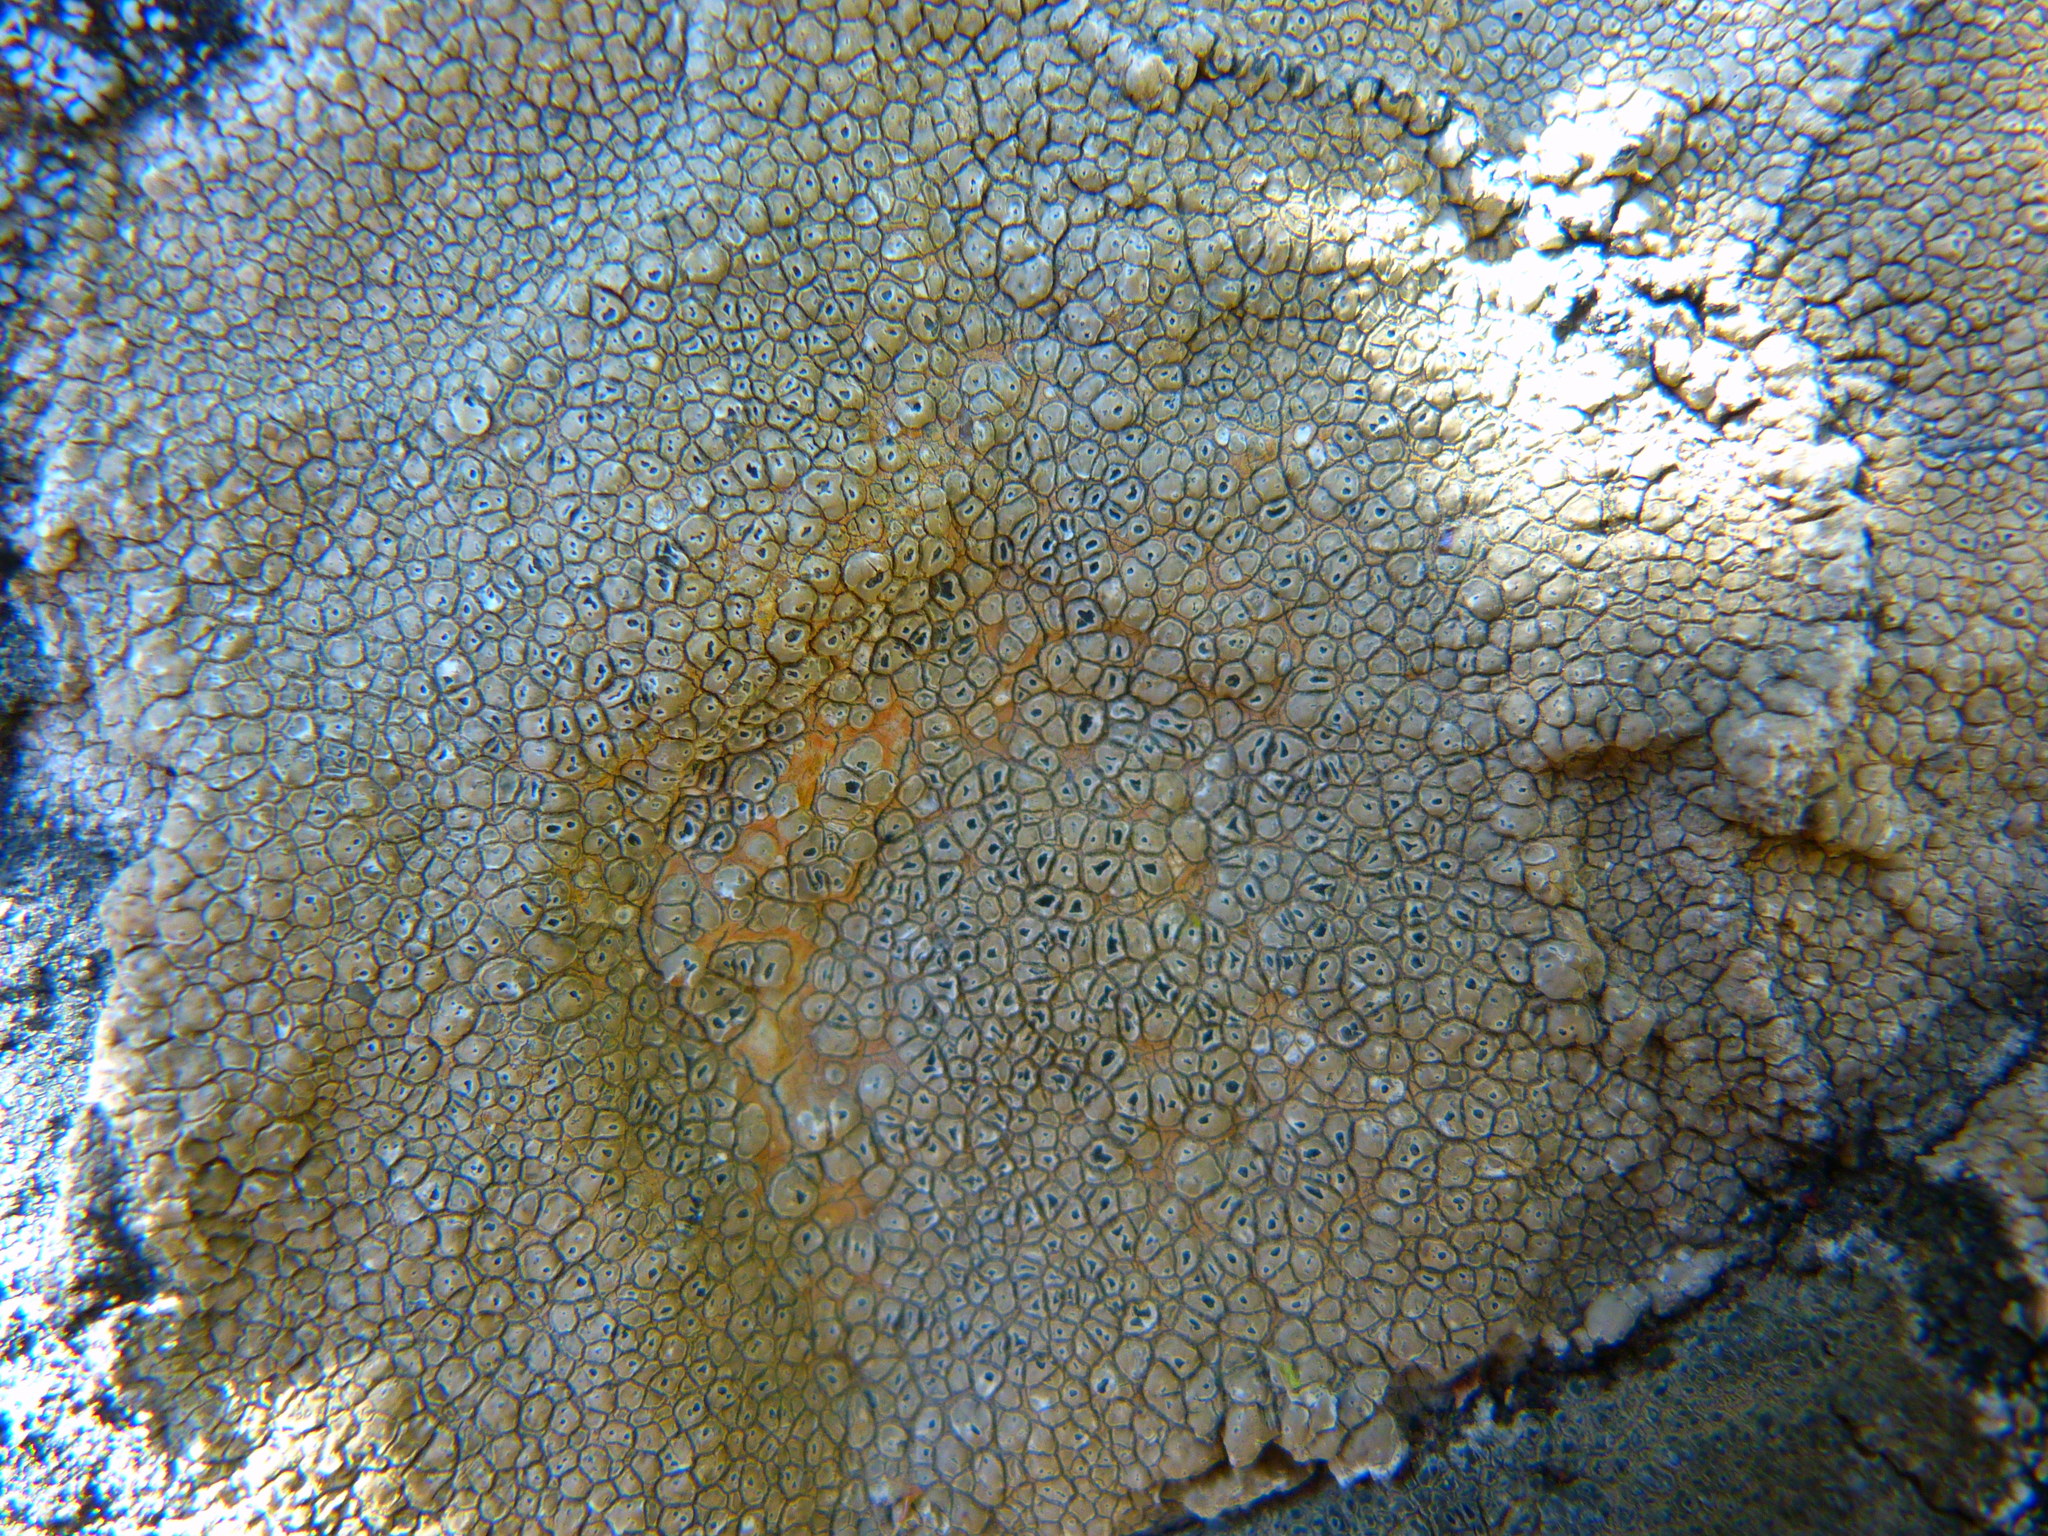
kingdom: Fungi
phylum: Ascomycota
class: Lecanoromycetes
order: Pertusariales
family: Megasporaceae
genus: Aspicilia
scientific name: Aspicilia cuprea
